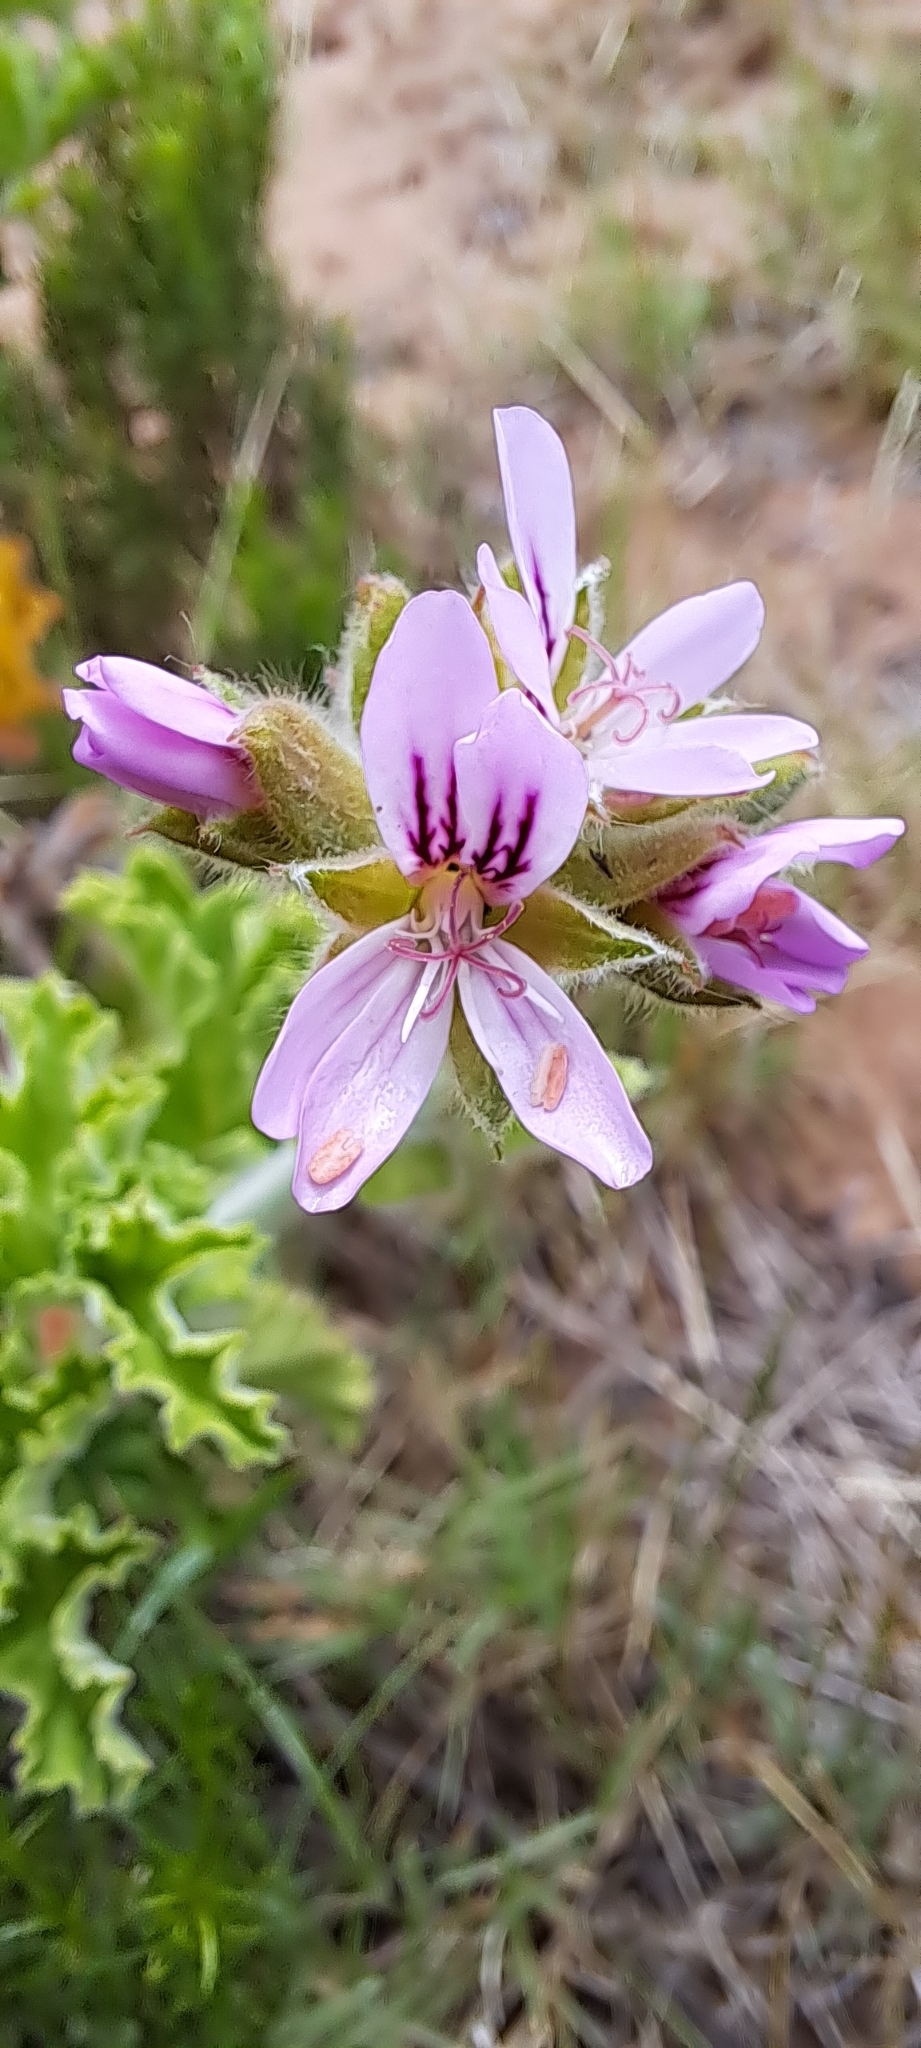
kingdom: Plantae
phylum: Tracheophyta
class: Magnoliopsida
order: Geraniales
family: Geraniaceae
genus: Pelargonium
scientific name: Pelargonium capitatum
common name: Rose scented geranium
